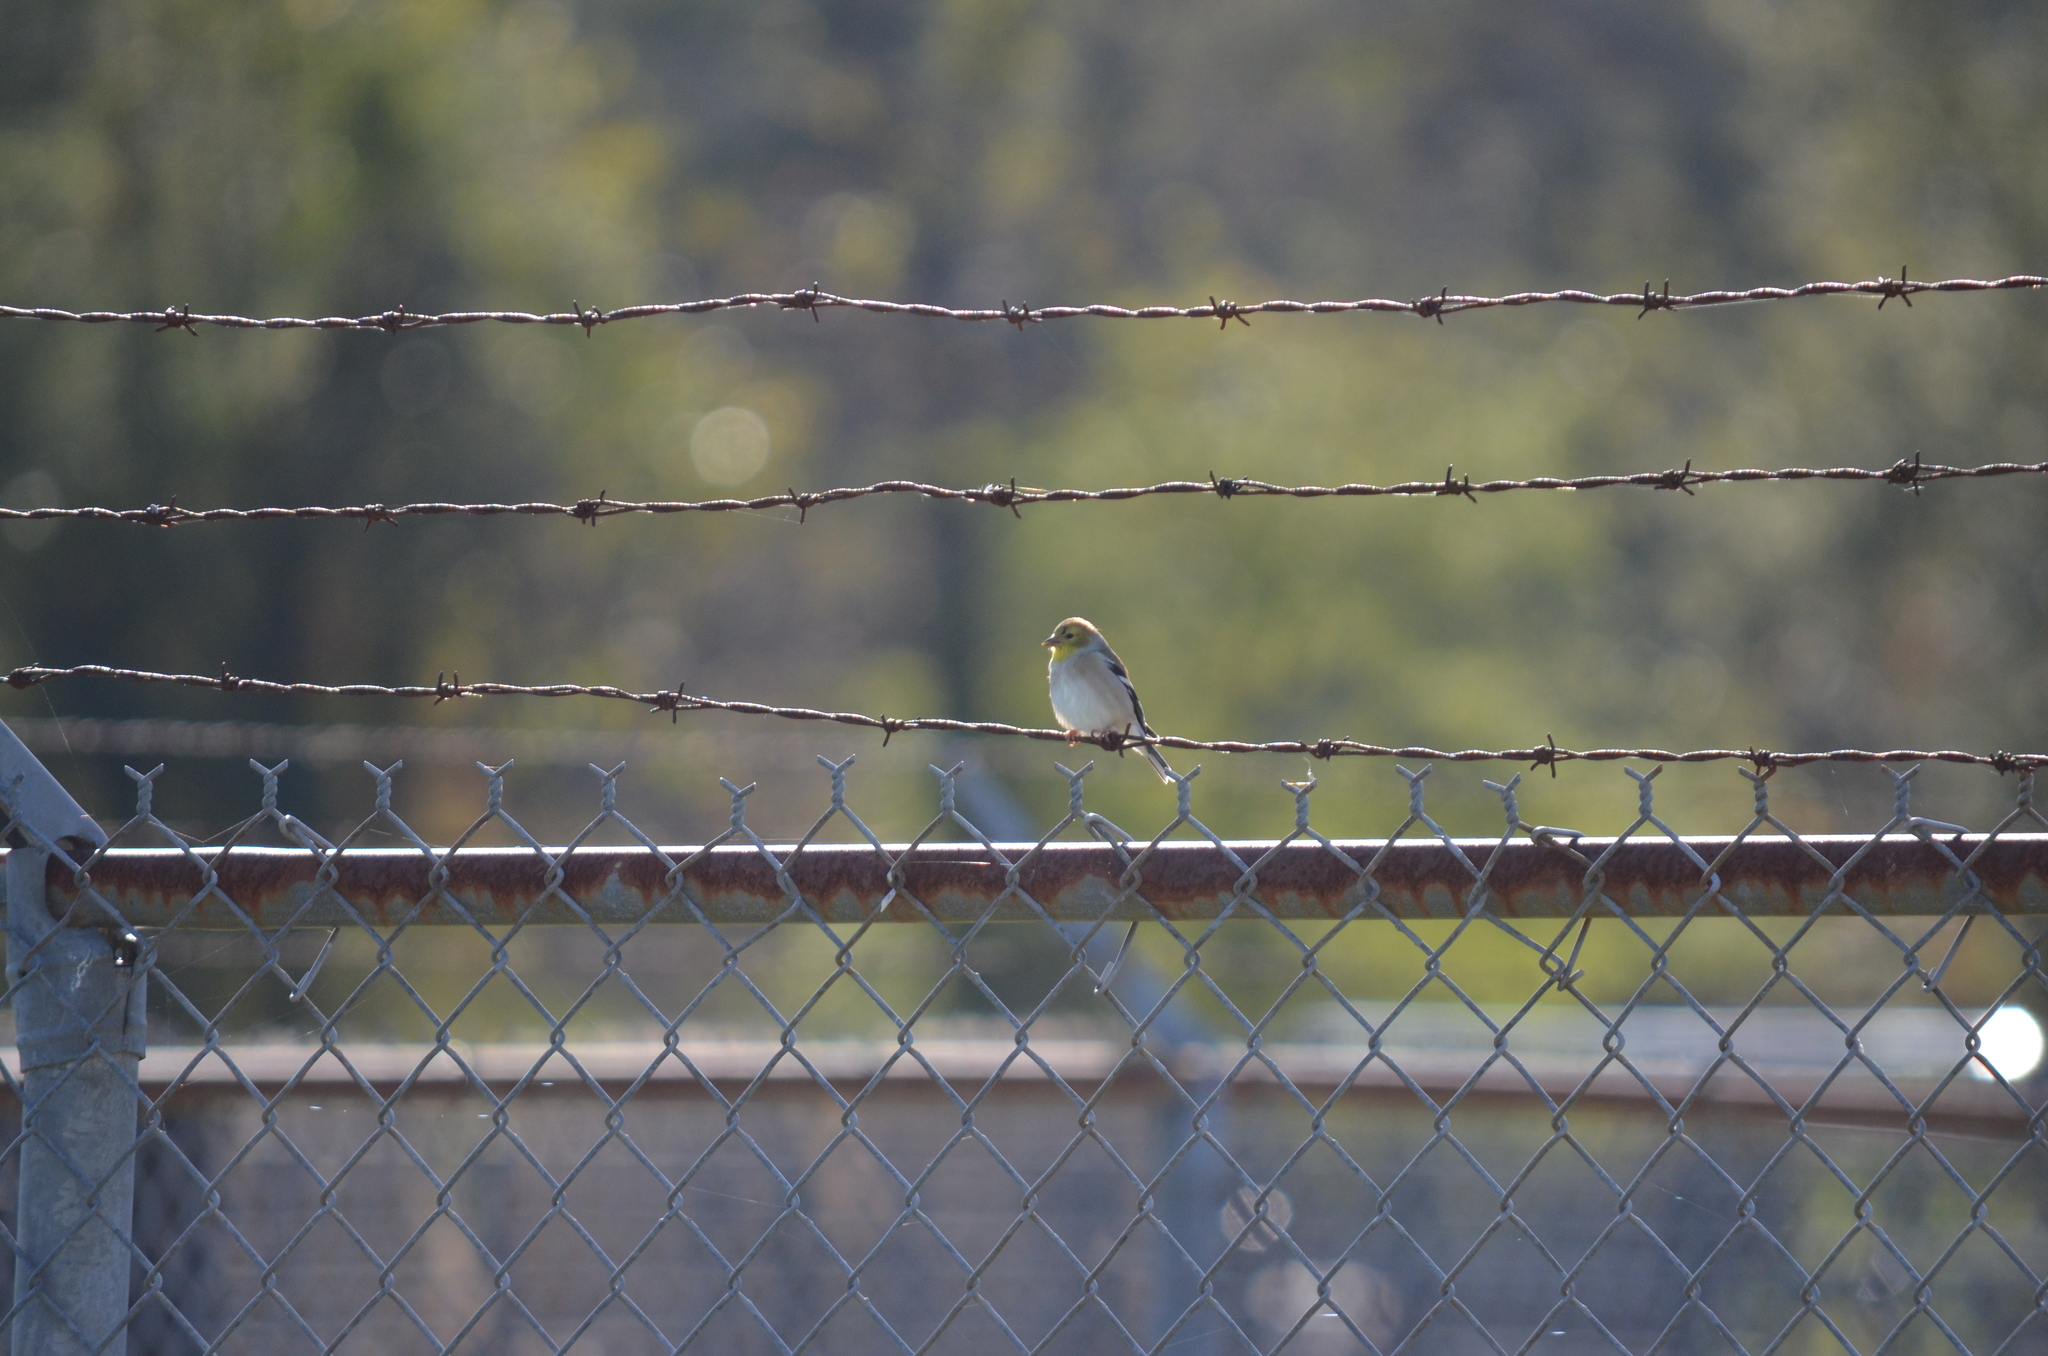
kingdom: Animalia
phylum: Chordata
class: Aves
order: Passeriformes
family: Fringillidae
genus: Spinus
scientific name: Spinus tristis
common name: American goldfinch
